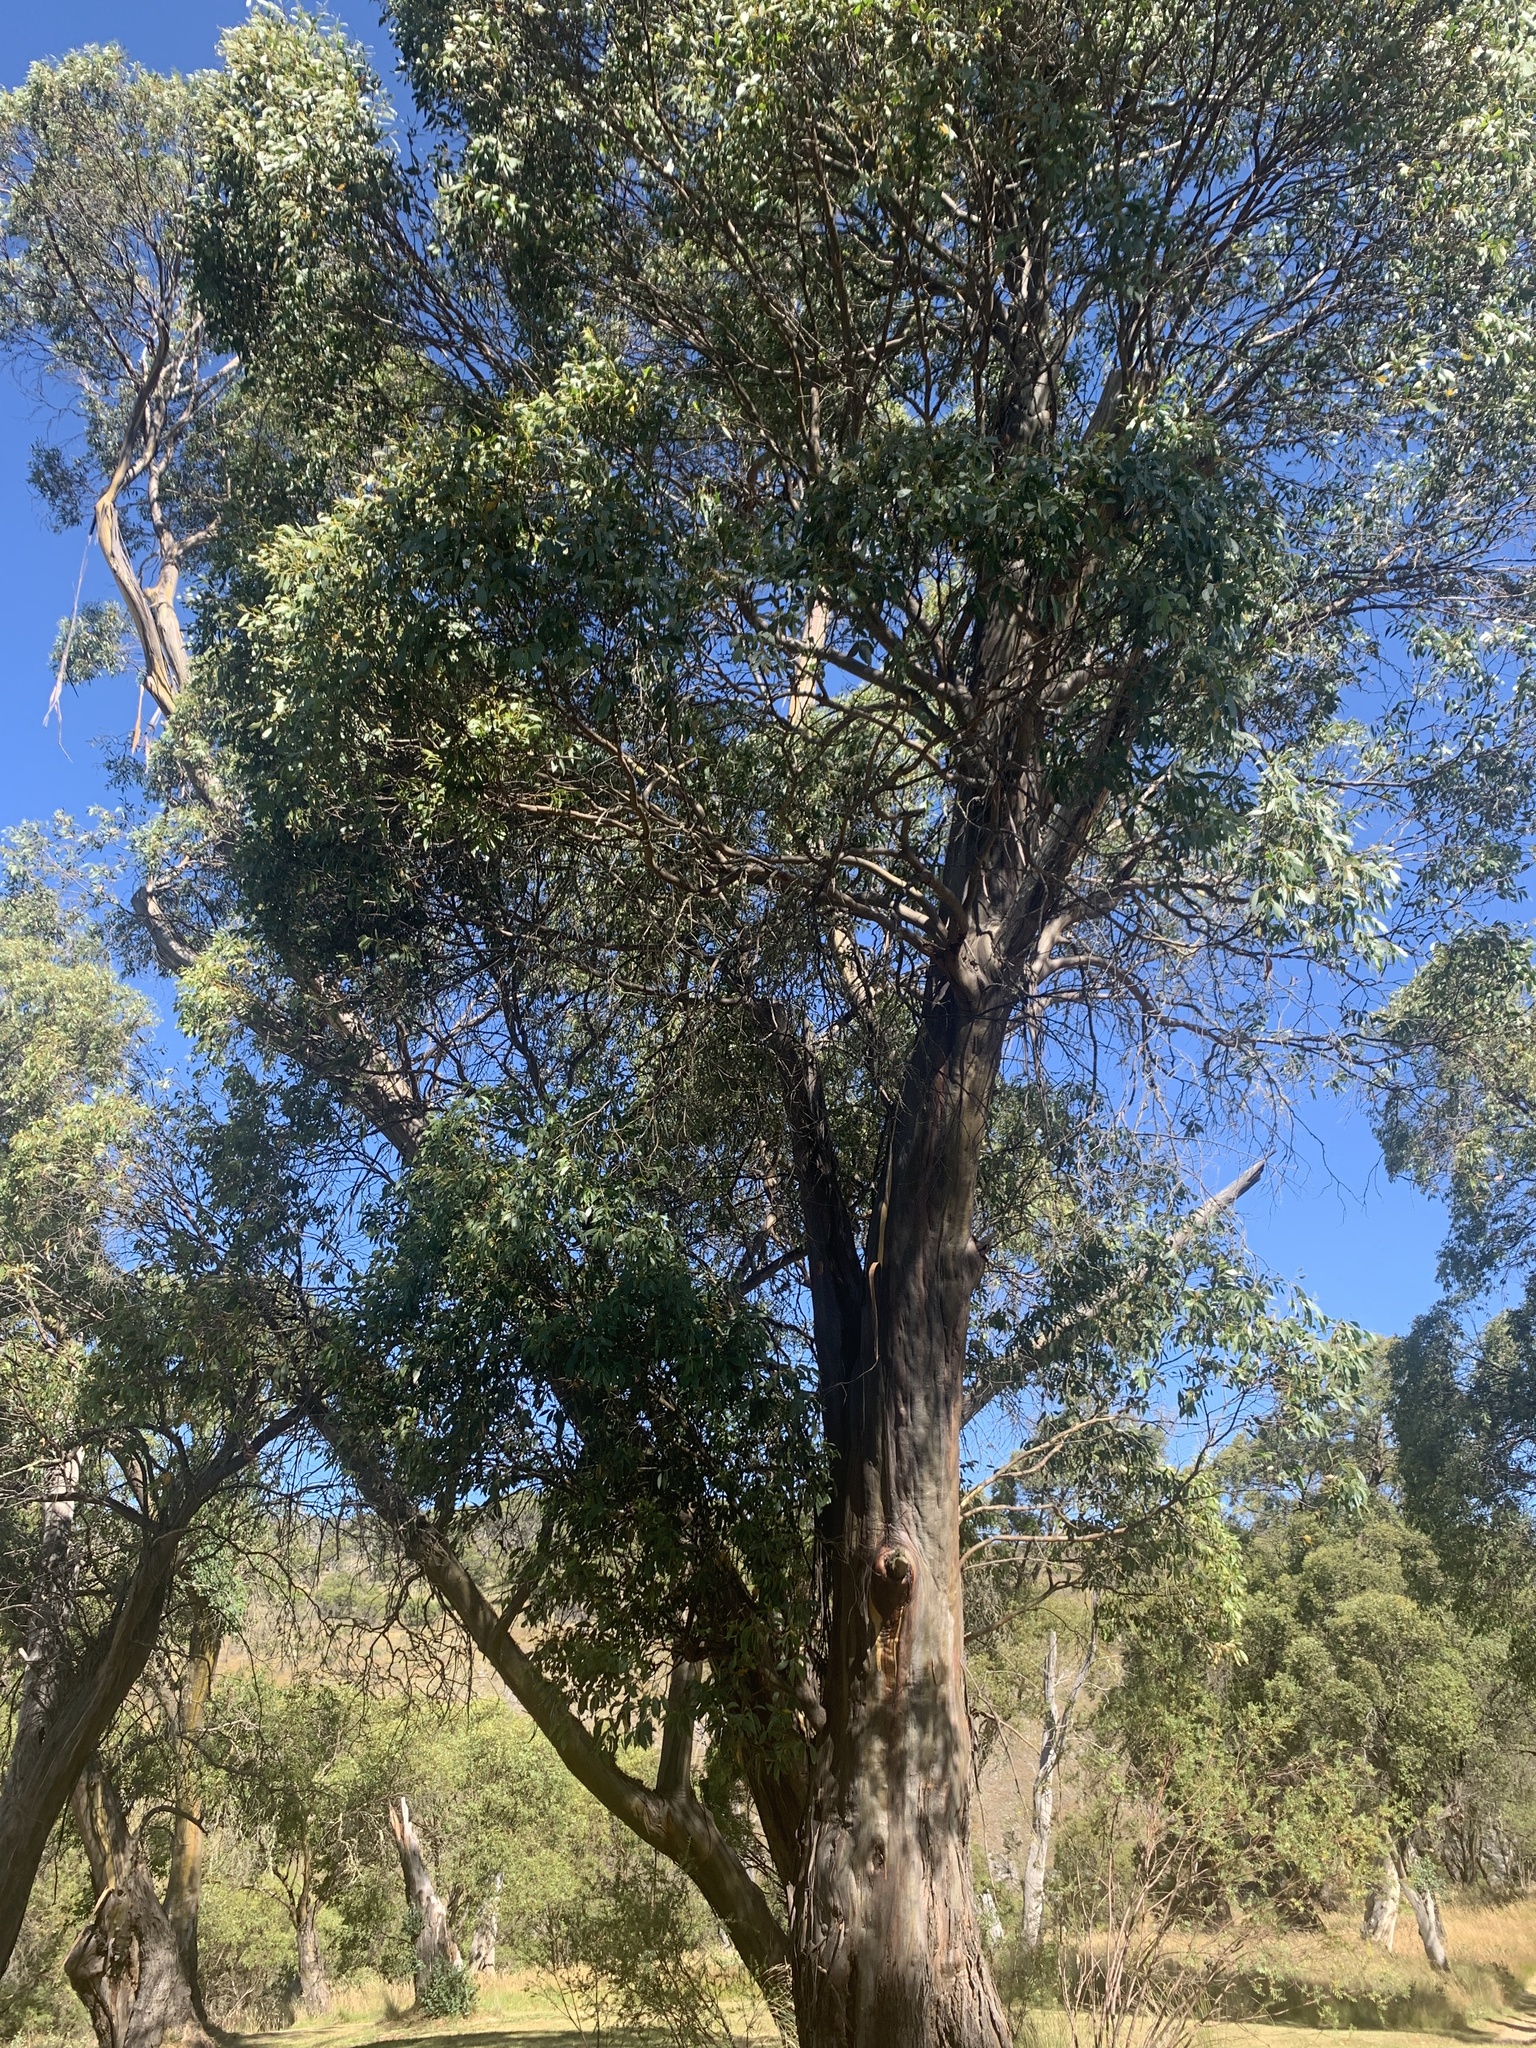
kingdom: Plantae
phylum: Tracheophyta
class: Magnoliopsida
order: Myrtales
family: Myrtaceae
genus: Eucalyptus
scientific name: Eucalyptus stellulata
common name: Black sallee
